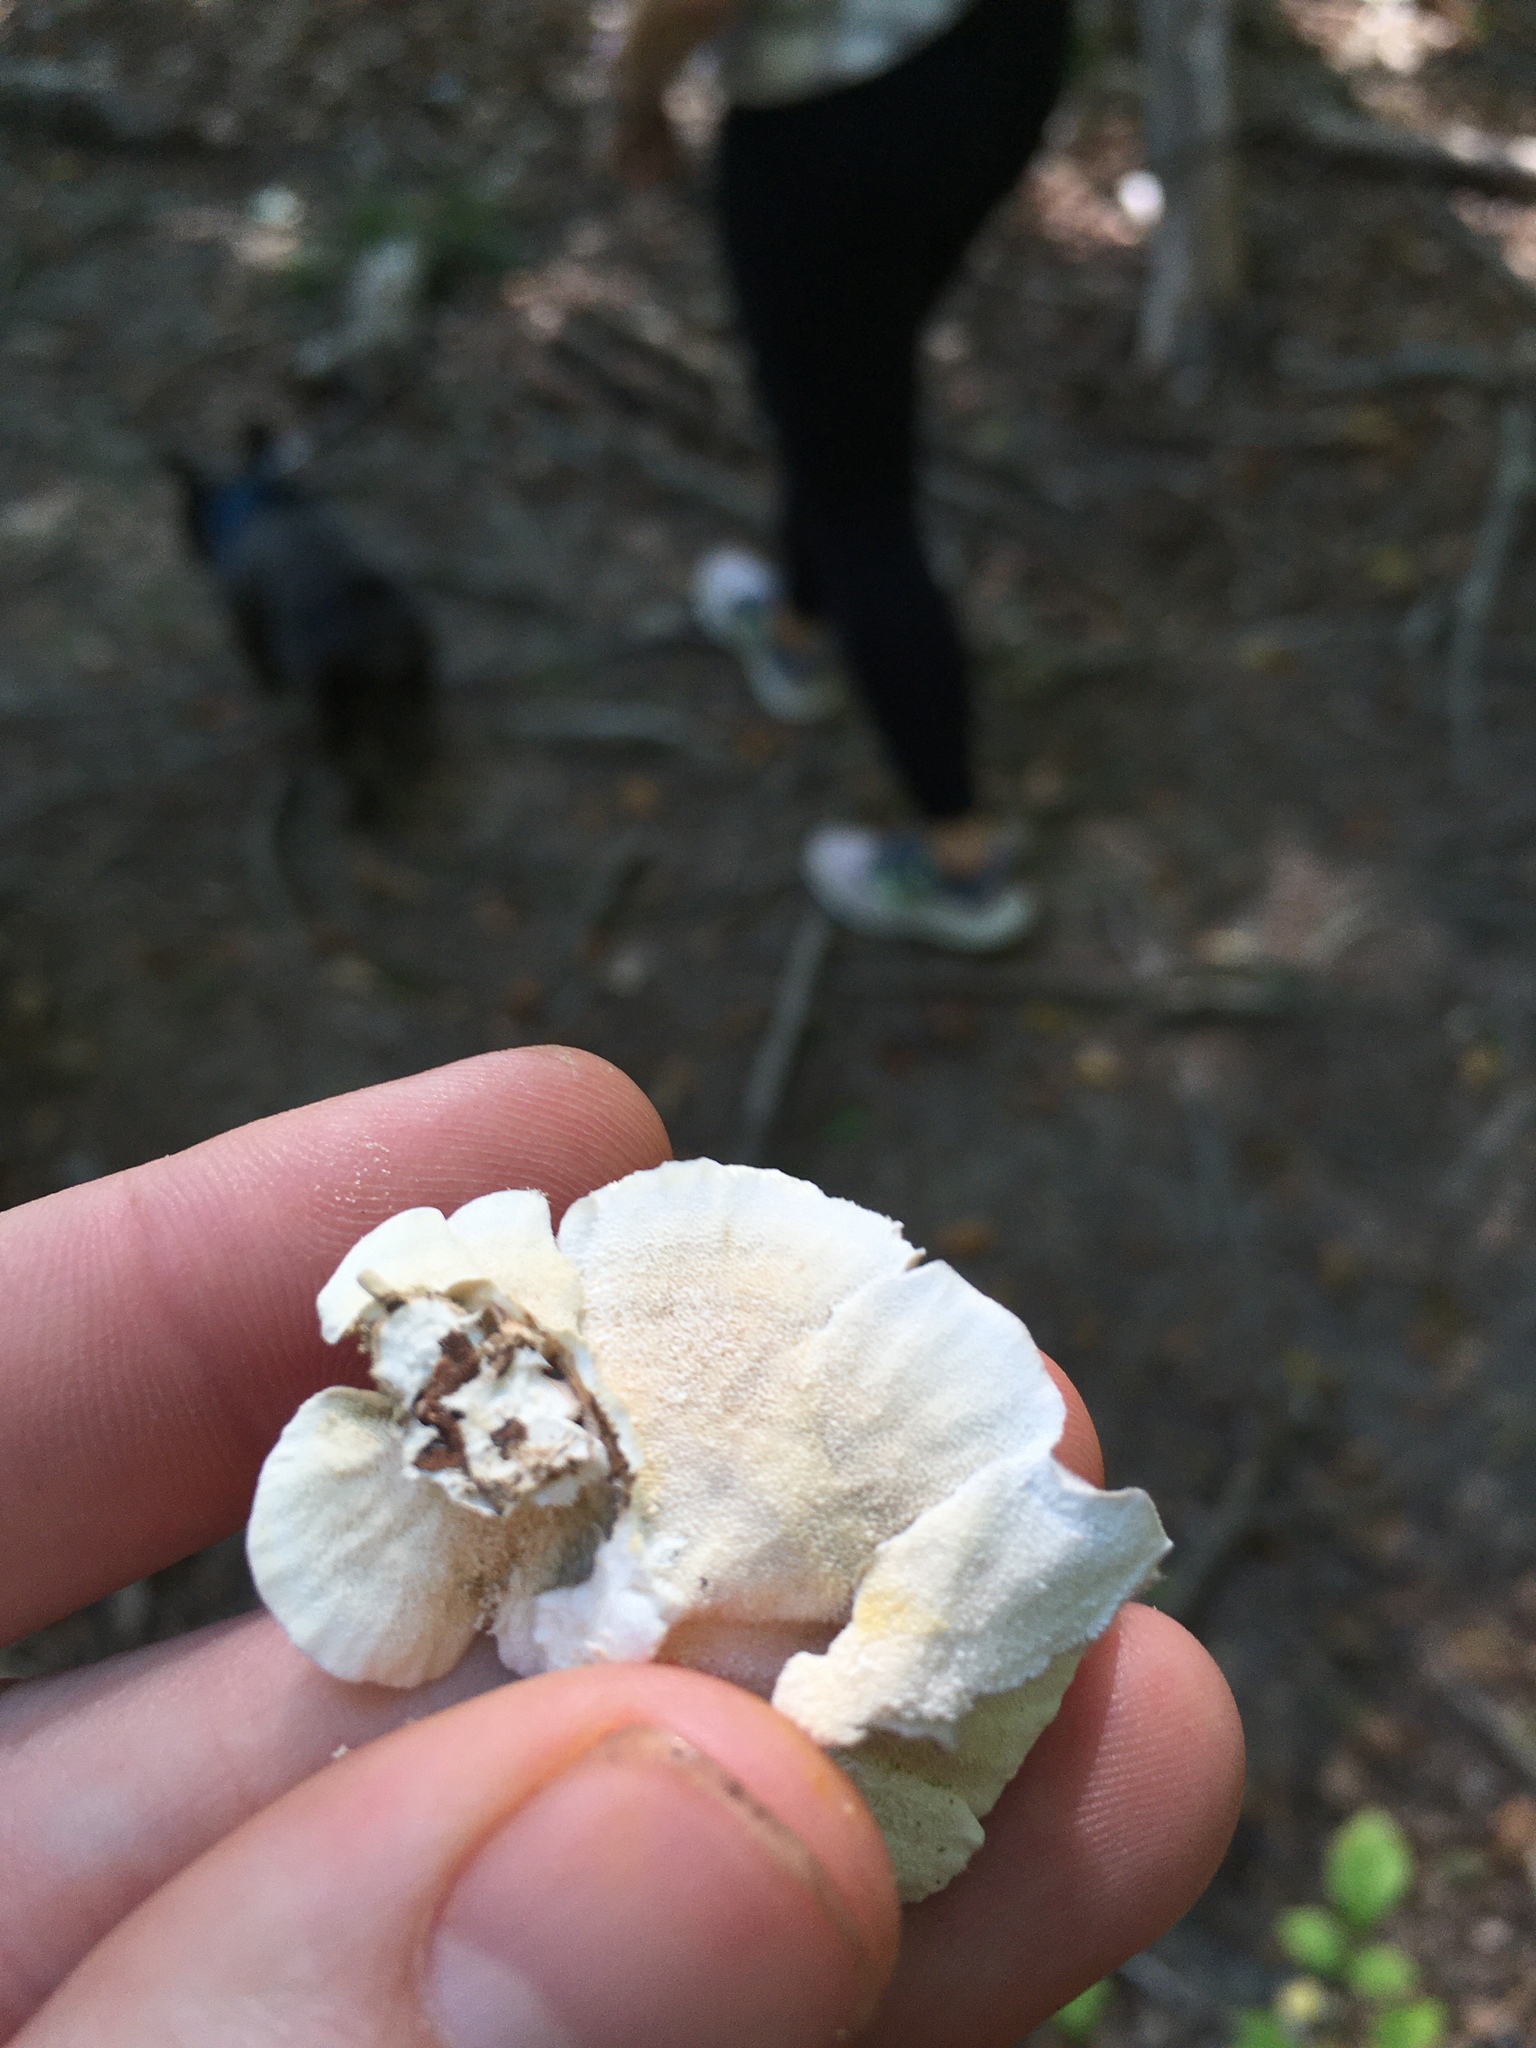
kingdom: Fungi
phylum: Basidiomycota
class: Agaricomycetes
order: Polyporales
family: Polyporaceae
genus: Trametes
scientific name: Trametes versicolor
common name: Turkeytail
